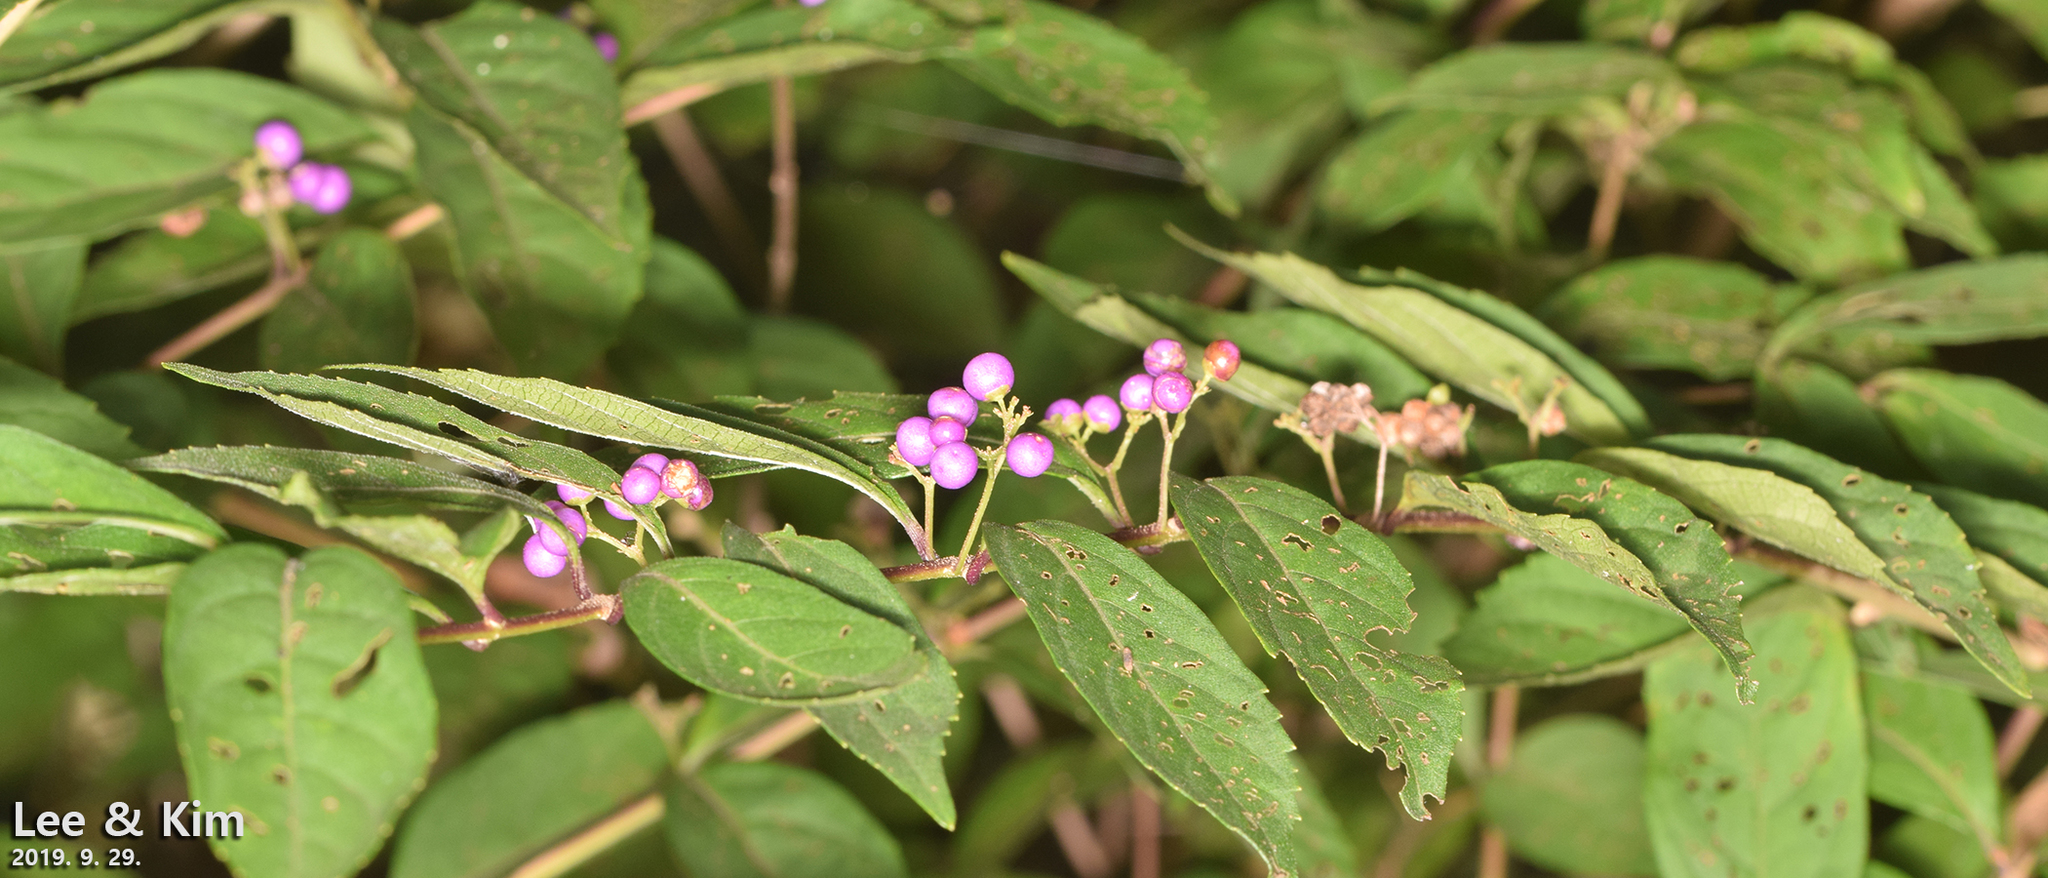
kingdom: Plantae
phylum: Tracheophyta
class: Magnoliopsida
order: Lamiales
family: Lamiaceae
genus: Callicarpa
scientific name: Callicarpa dichotoma
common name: Purple beauty-berry
